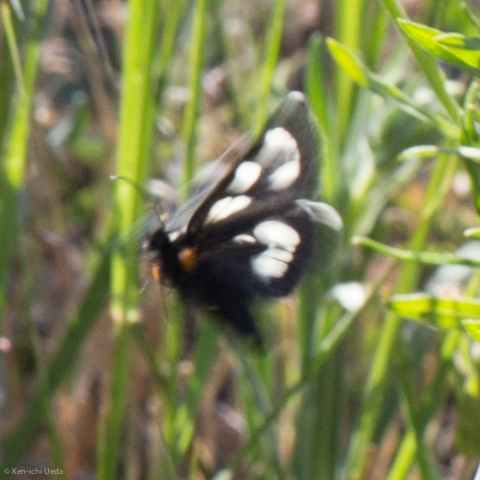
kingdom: Animalia
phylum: Arthropoda
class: Insecta
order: Lepidoptera
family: Noctuidae
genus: Alypia
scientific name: Alypia mariposa
